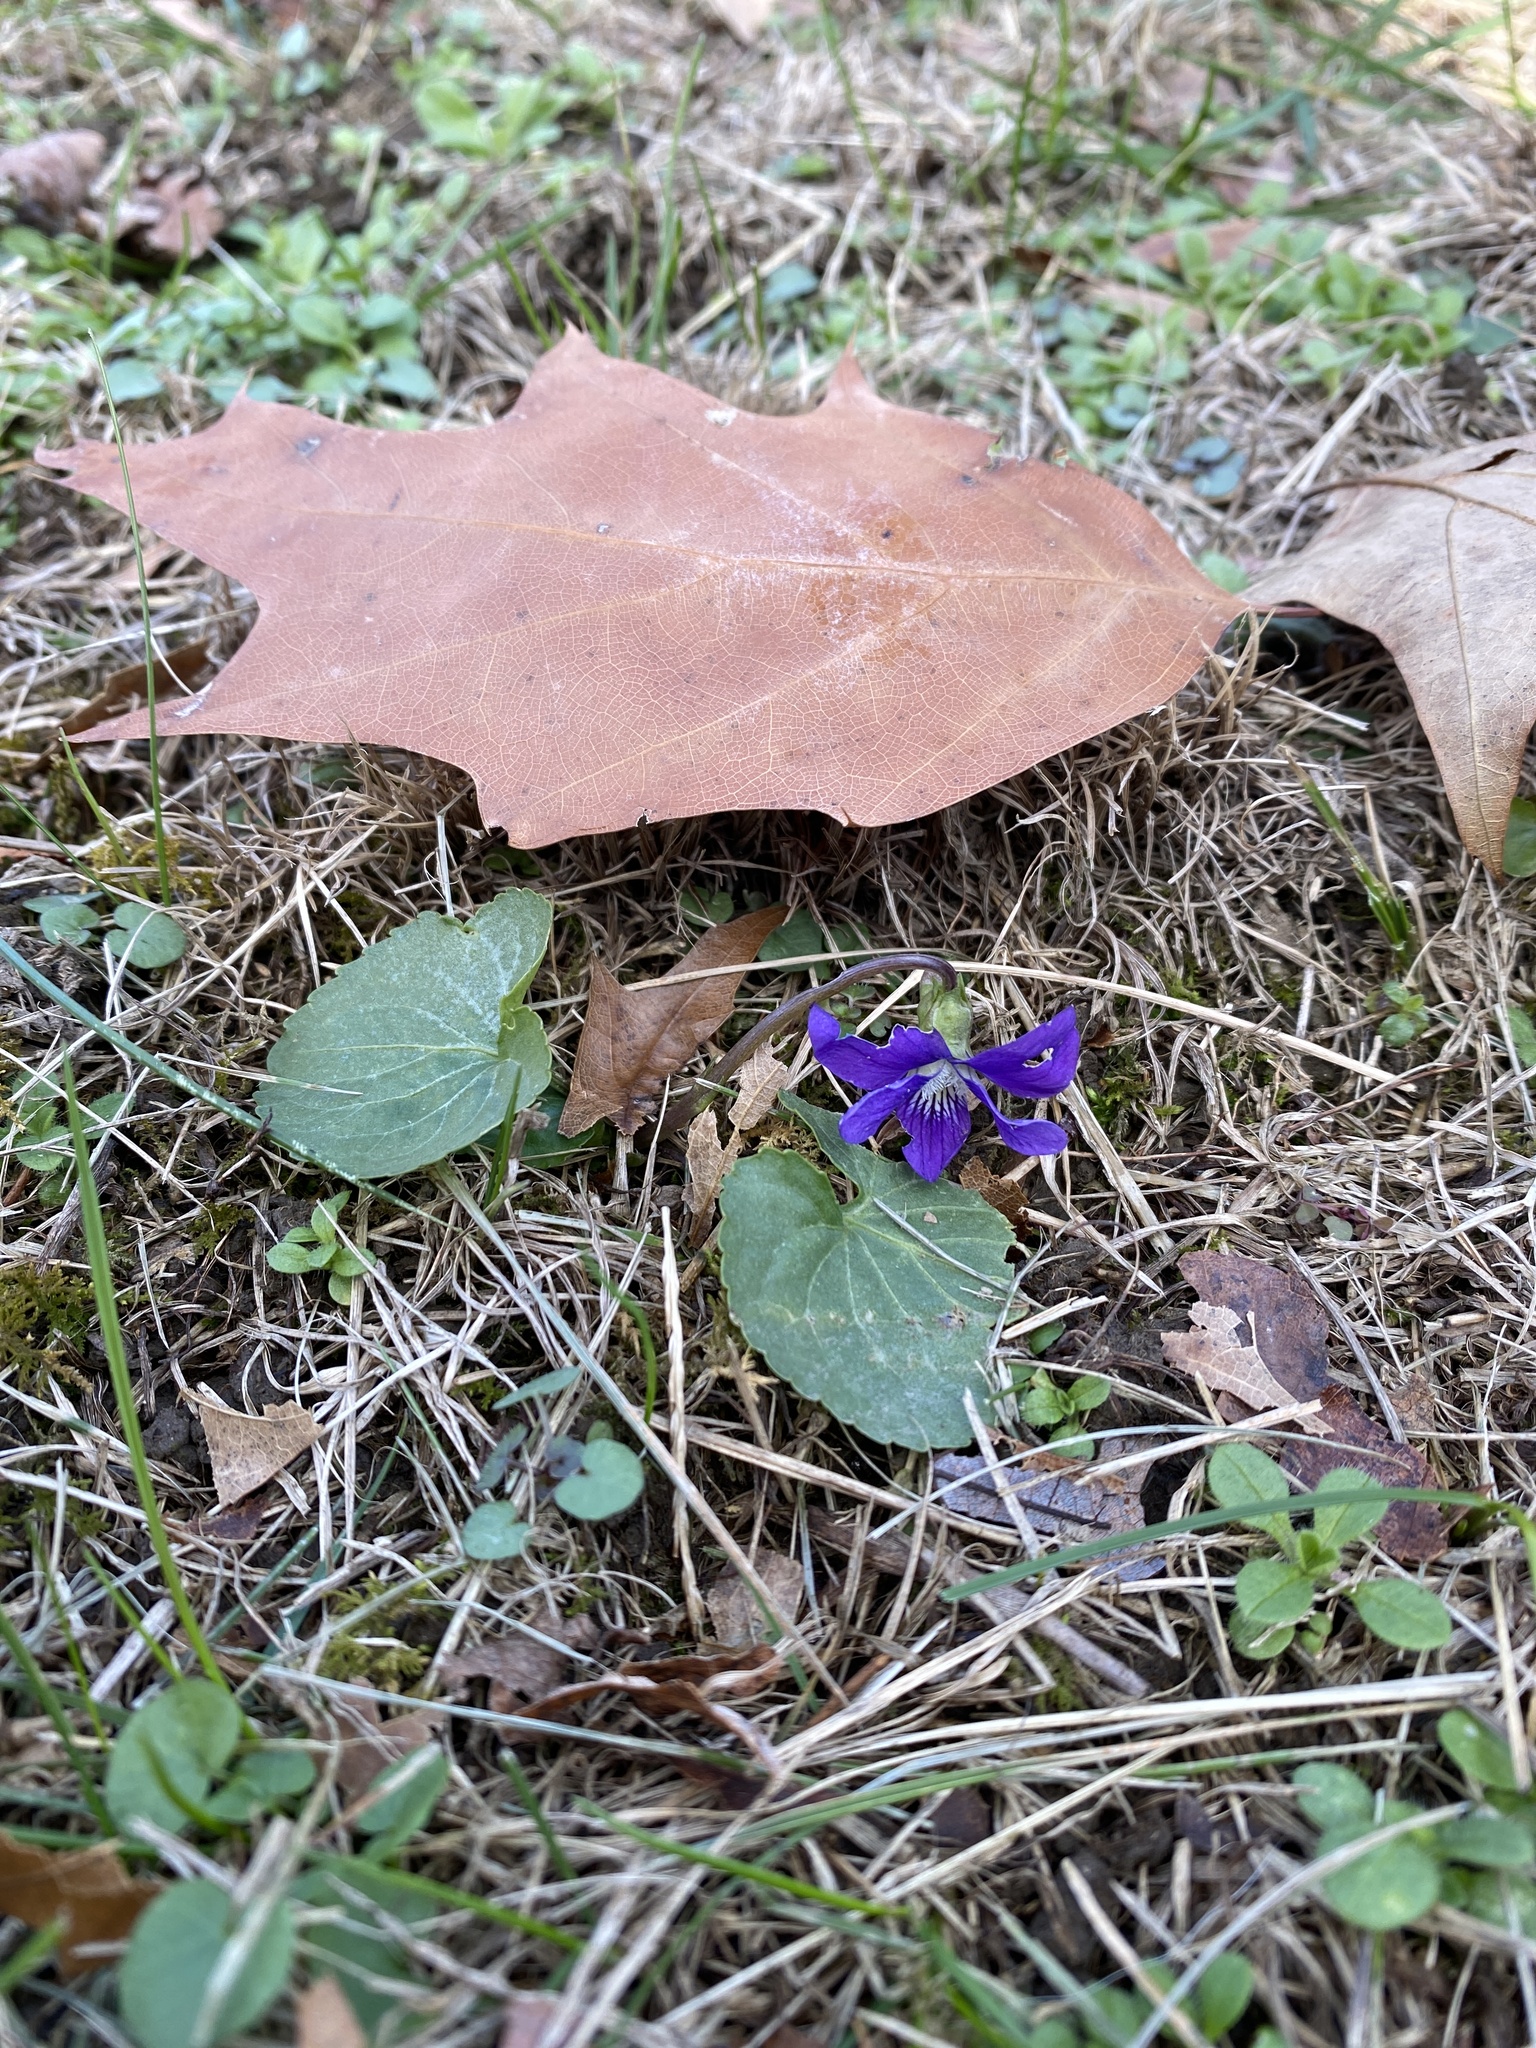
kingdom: Plantae
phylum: Tracheophyta
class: Magnoliopsida
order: Malpighiales
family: Violaceae
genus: Viola
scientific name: Viola sororia
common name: Dooryard violet
